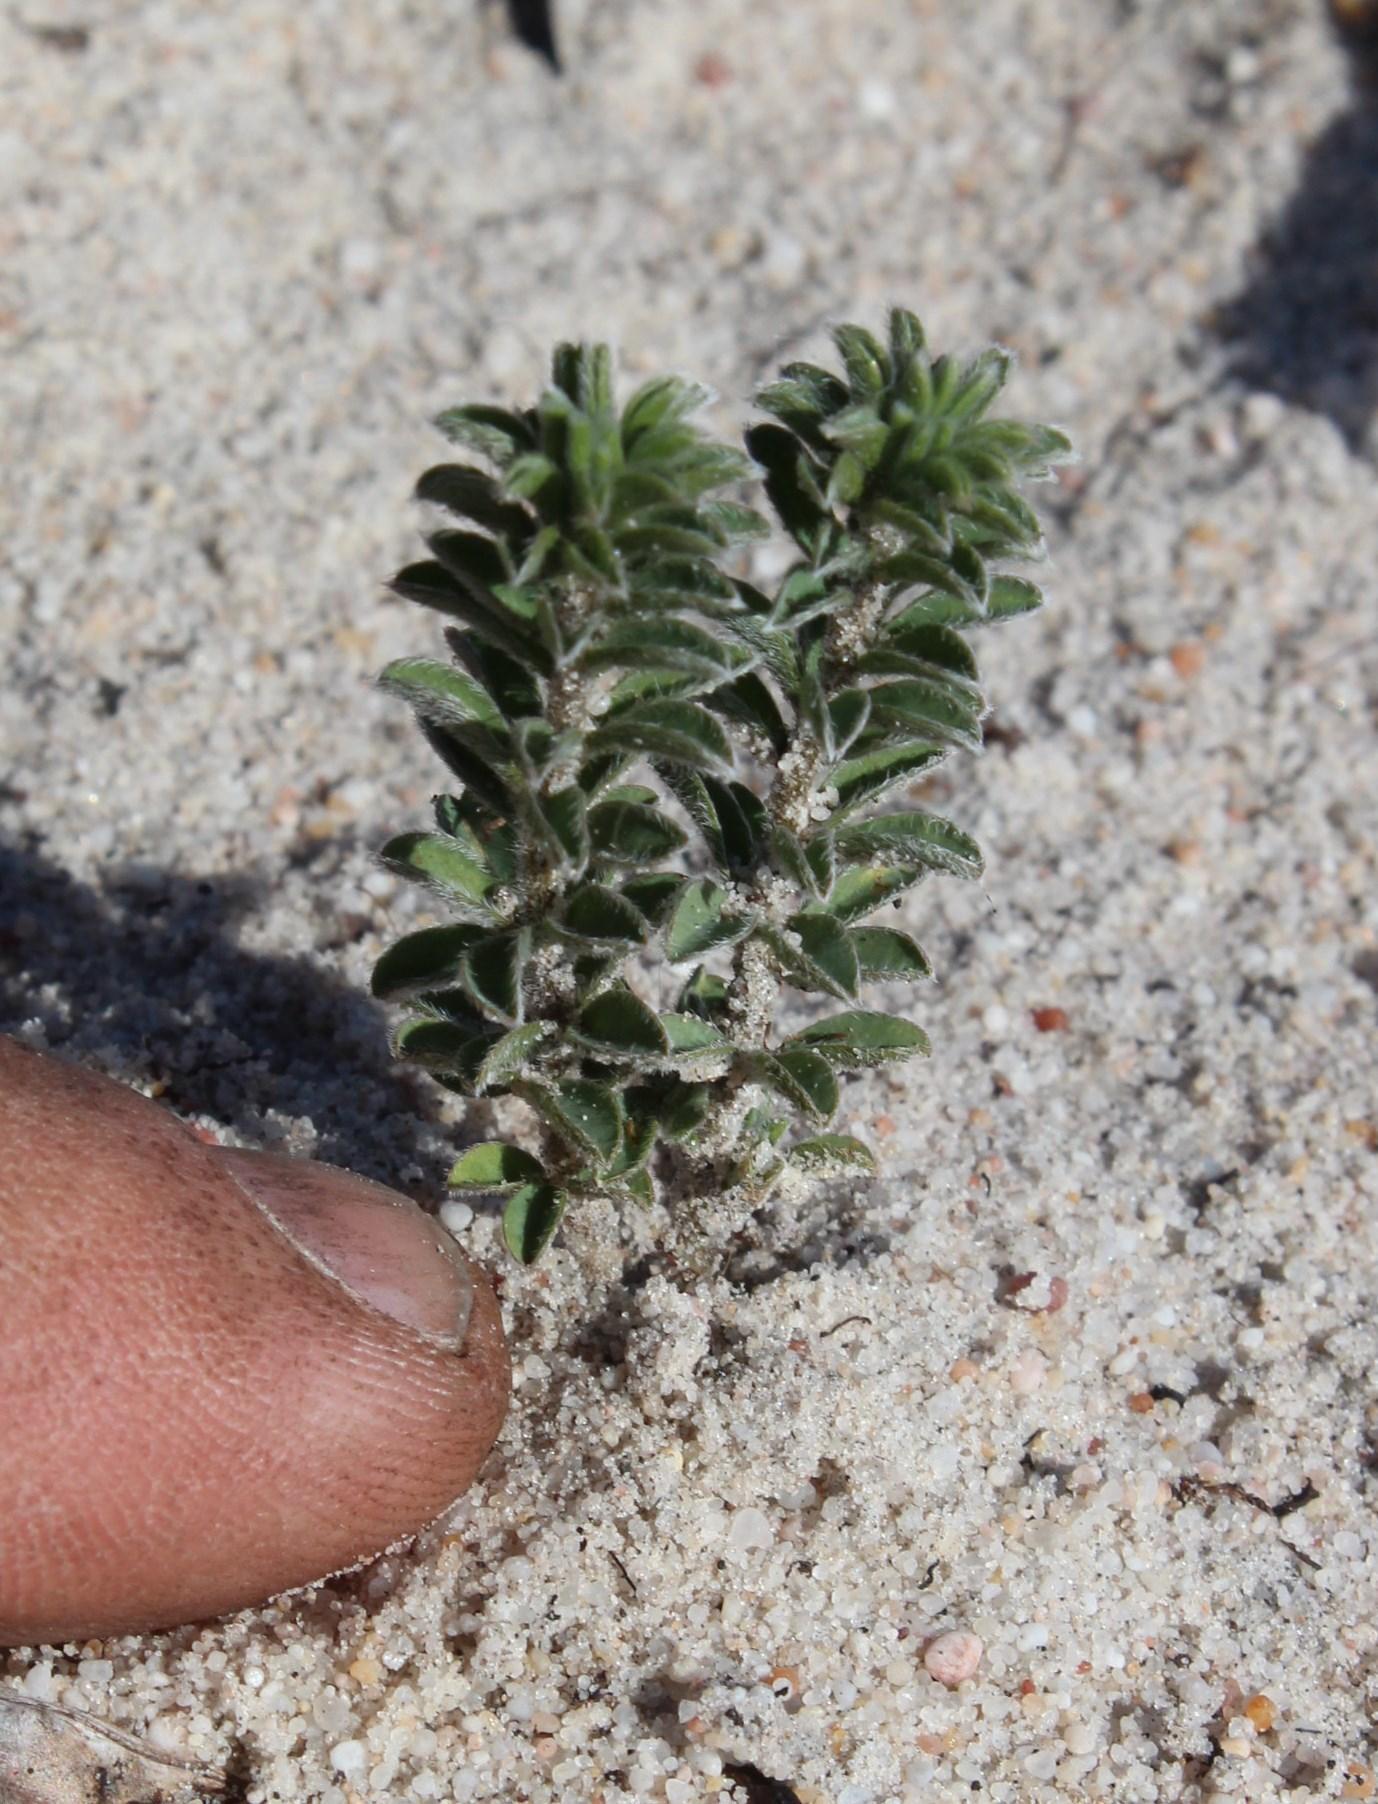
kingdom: Plantae
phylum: Tracheophyta
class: Magnoliopsida
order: Oxalidales
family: Oxalidaceae
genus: Oxalis
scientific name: Oxalis hirta
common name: Tropical woodsorrel
